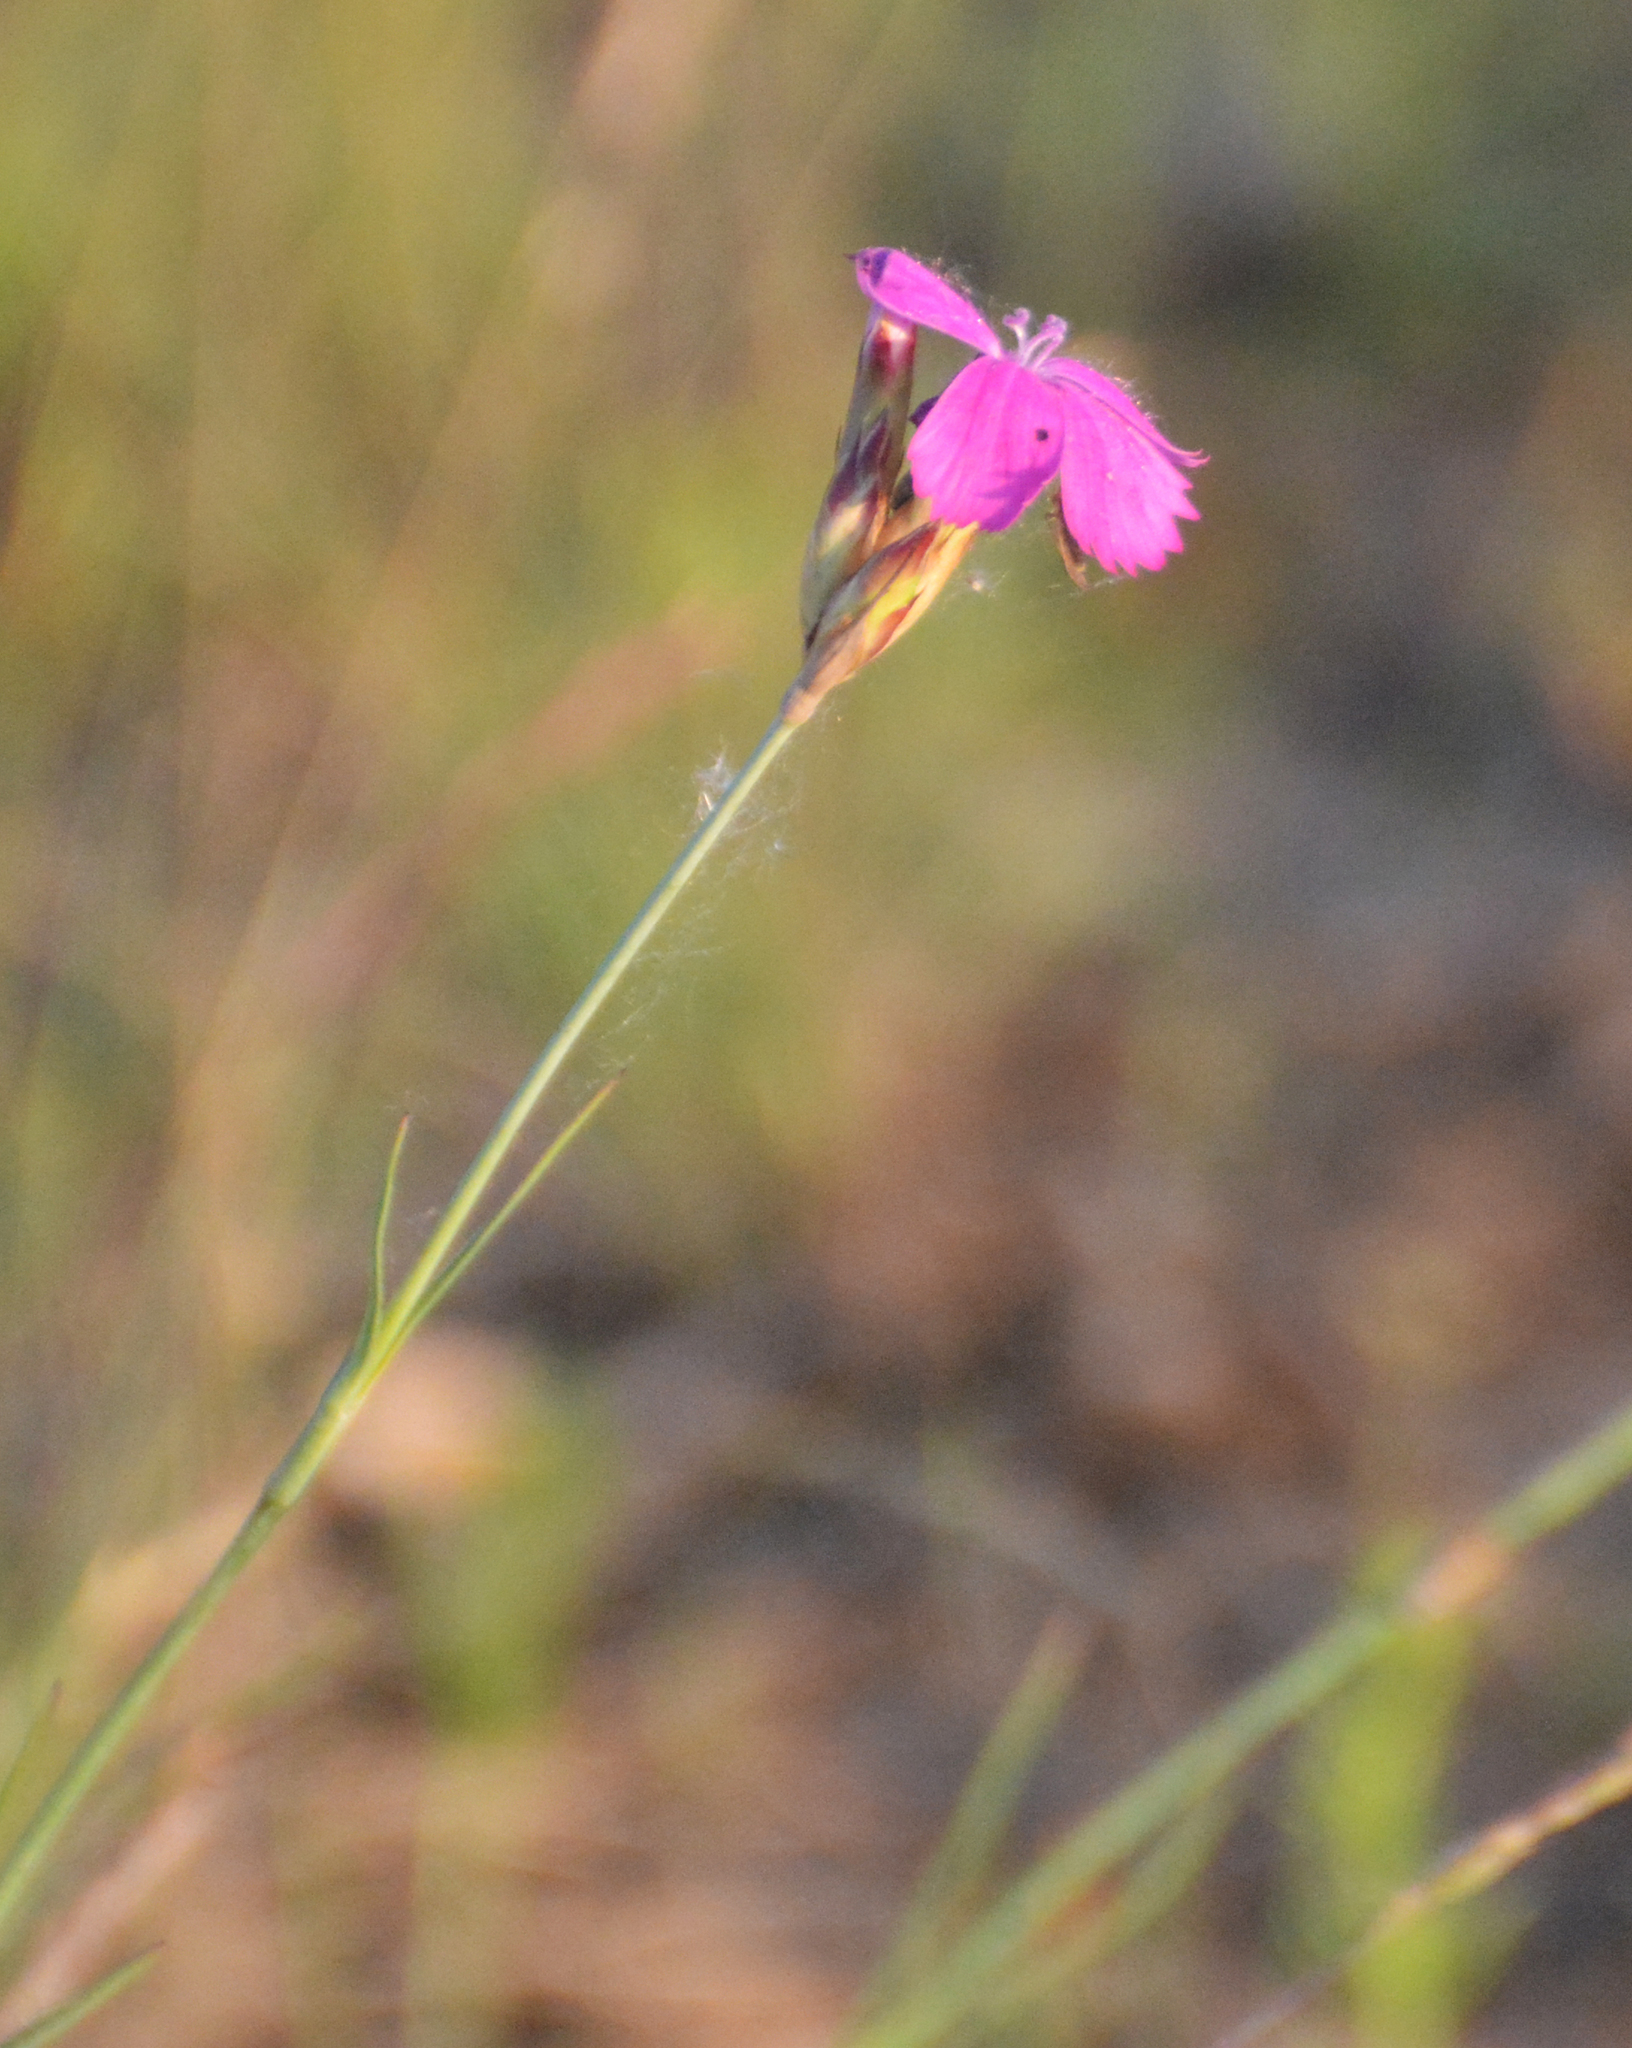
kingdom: Plantae
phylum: Tracheophyta
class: Magnoliopsida
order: Caryophyllales
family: Caryophyllaceae
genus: Dianthus
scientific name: Dianthus borbasii
